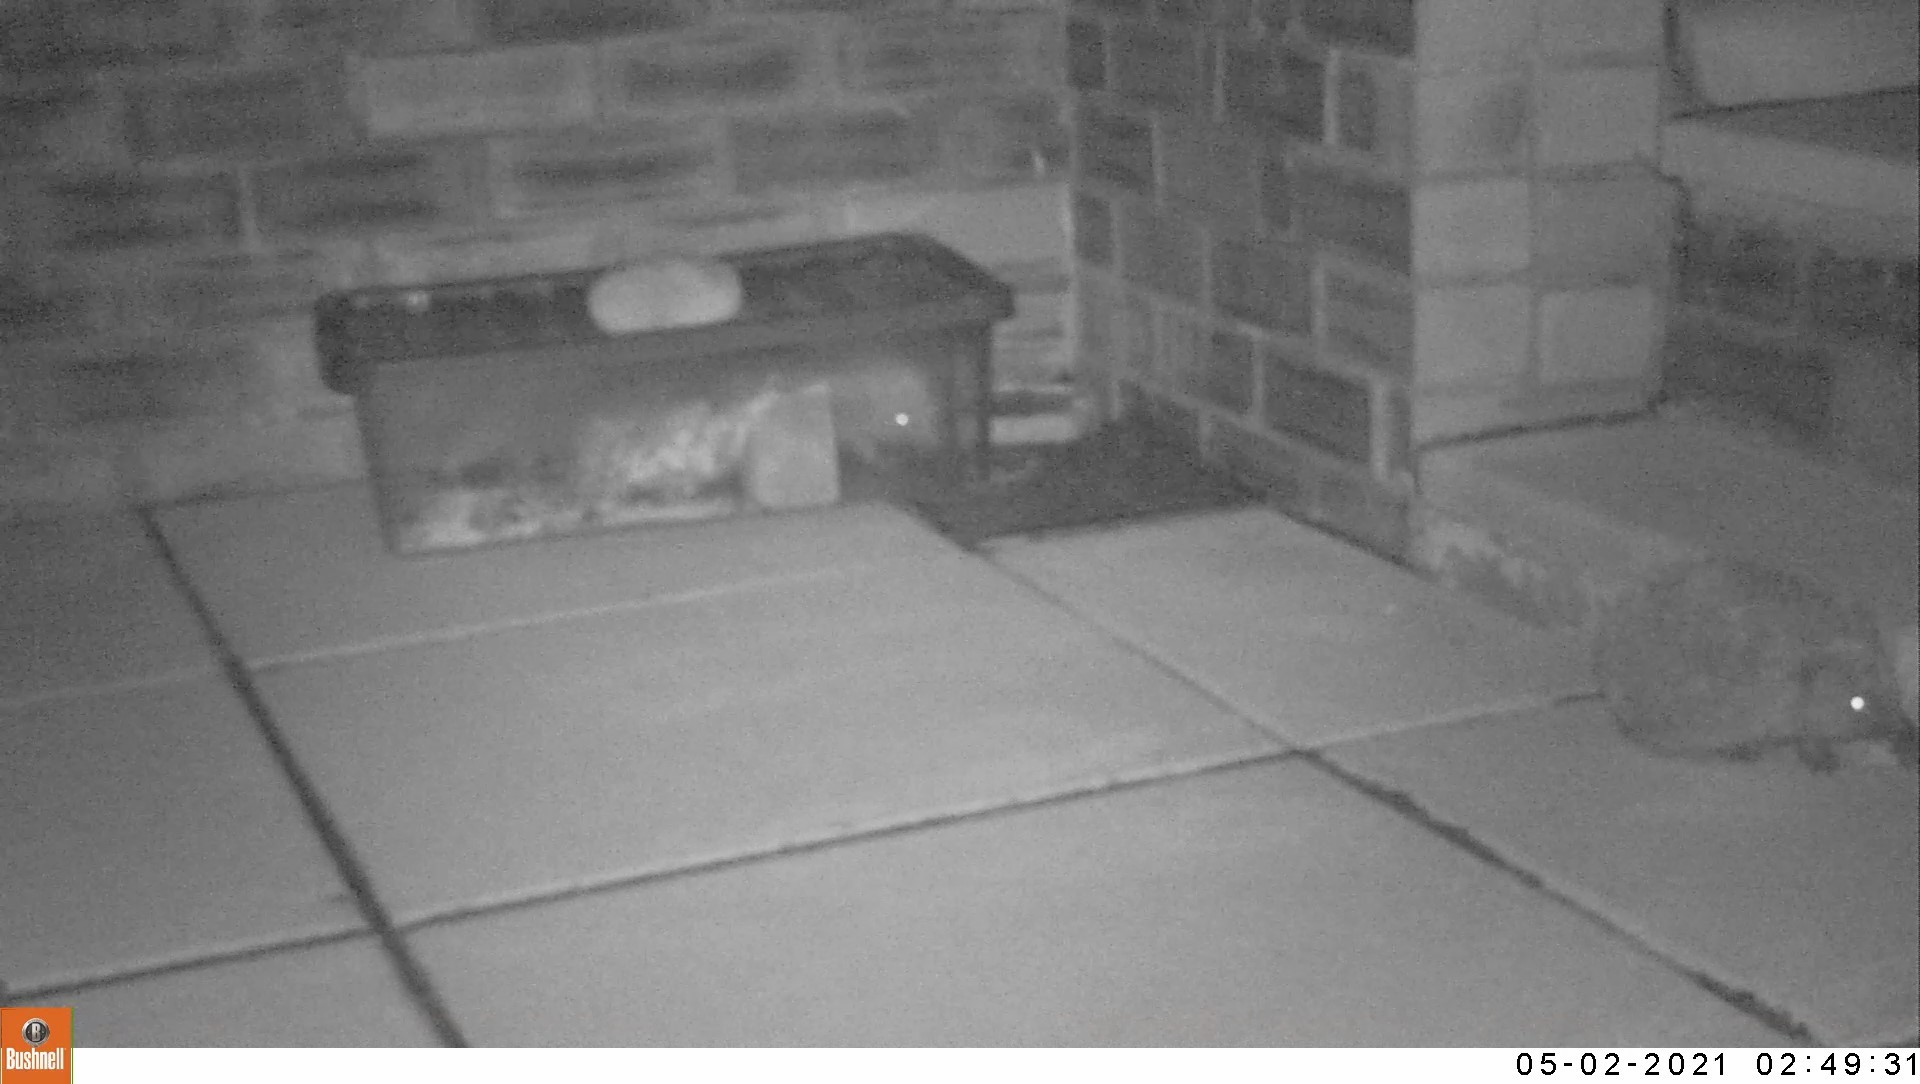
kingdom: Animalia
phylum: Chordata
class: Mammalia
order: Erinaceomorpha
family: Erinaceidae
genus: Erinaceus
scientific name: Erinaceus europaeus
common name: West european hedgehog
